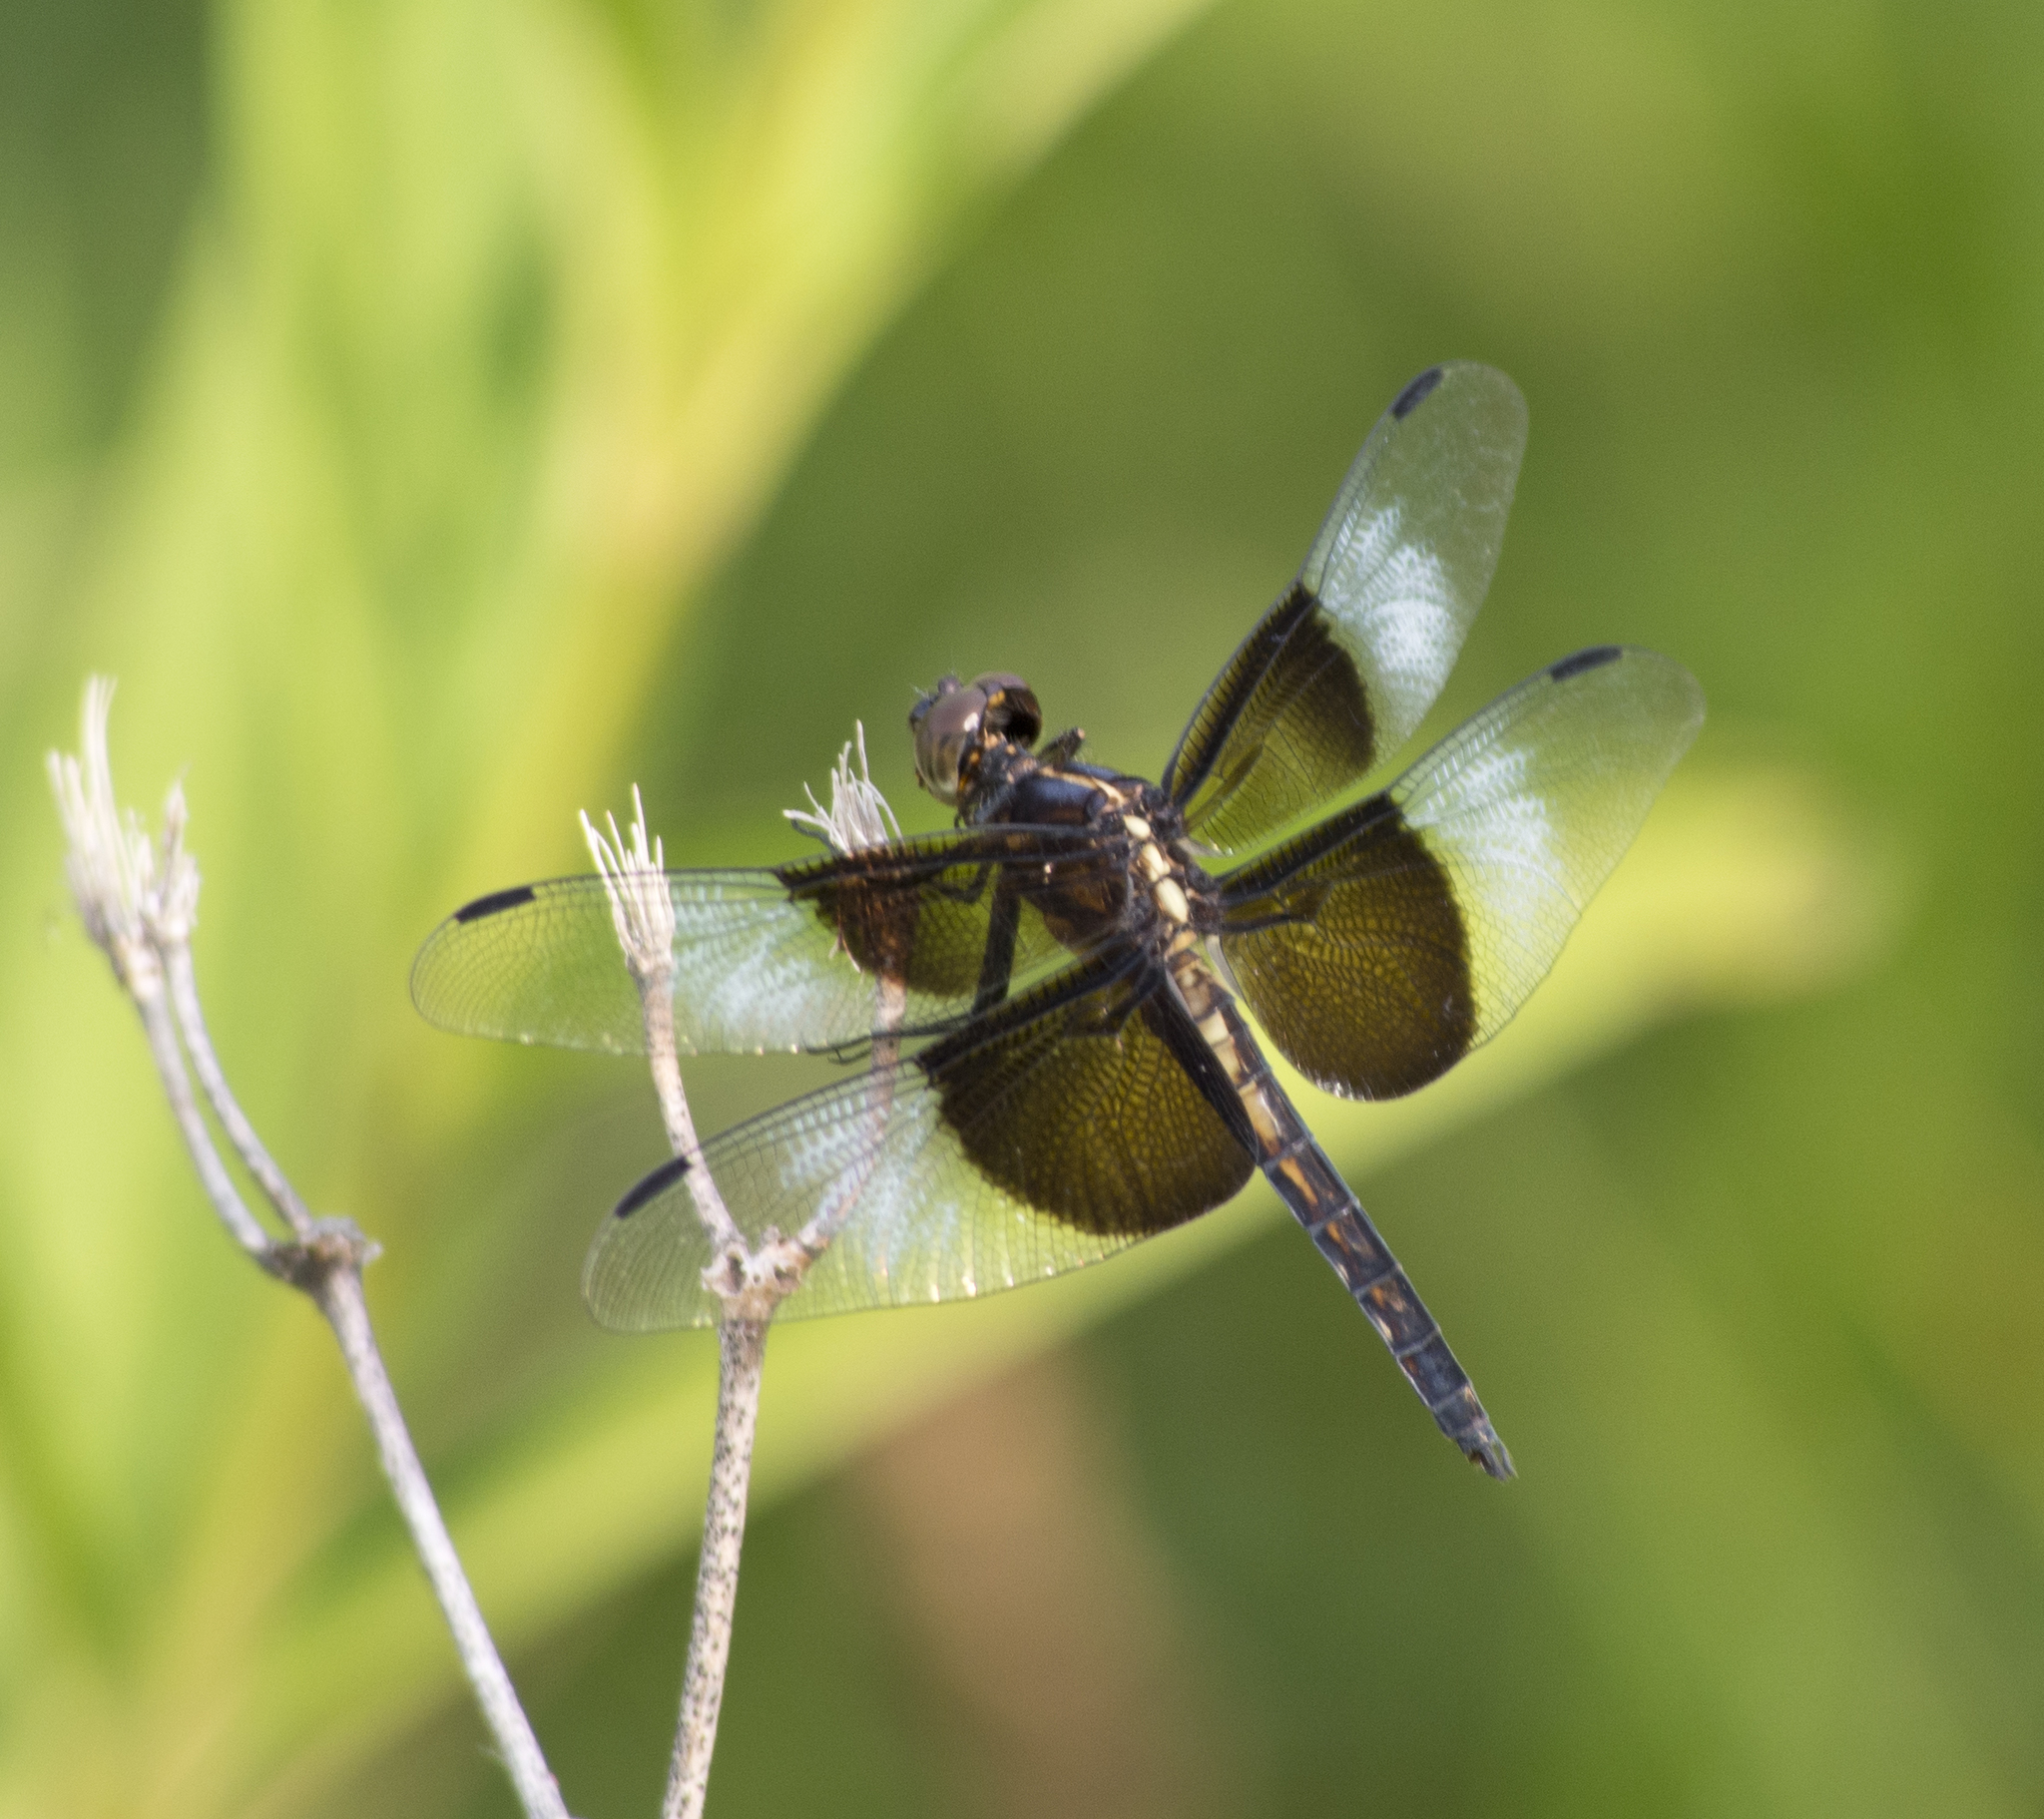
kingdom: Animalia
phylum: Arthropoda
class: Insecta
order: Odonata
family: Libellulidae
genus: Libellula
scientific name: Libellula luctuosa
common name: Widow skimmer
